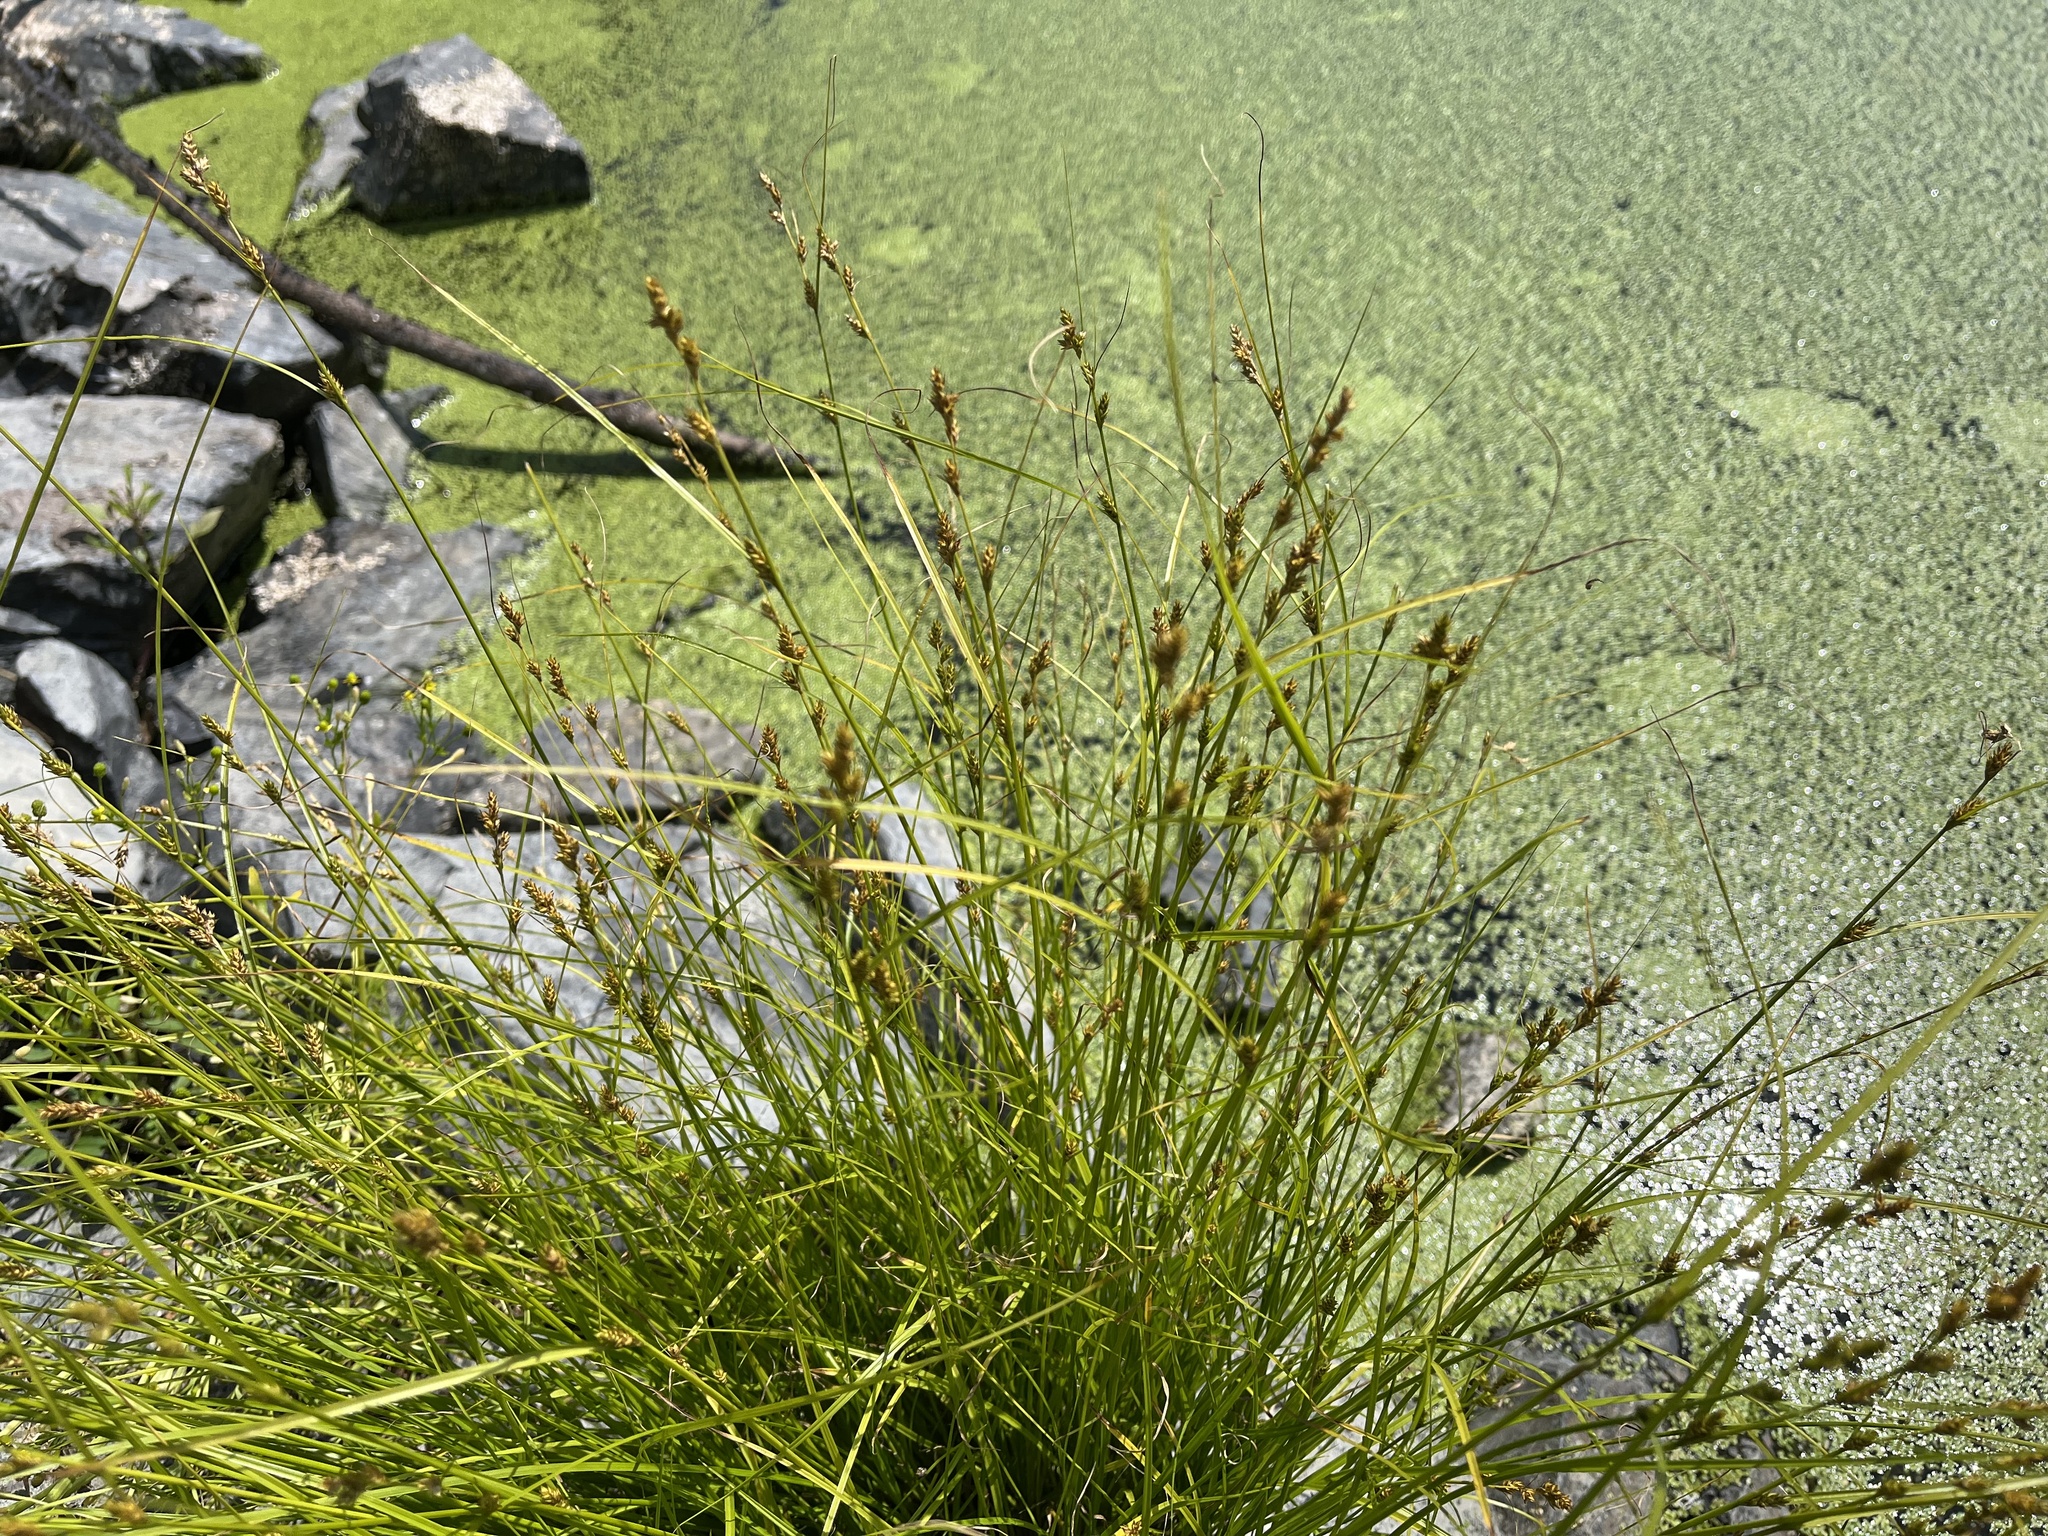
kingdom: Plantae
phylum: Tracheophyta
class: Liliopsida
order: Poales
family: Cyperaceae
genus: Carex
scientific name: Carex remota
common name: Remote sedge
